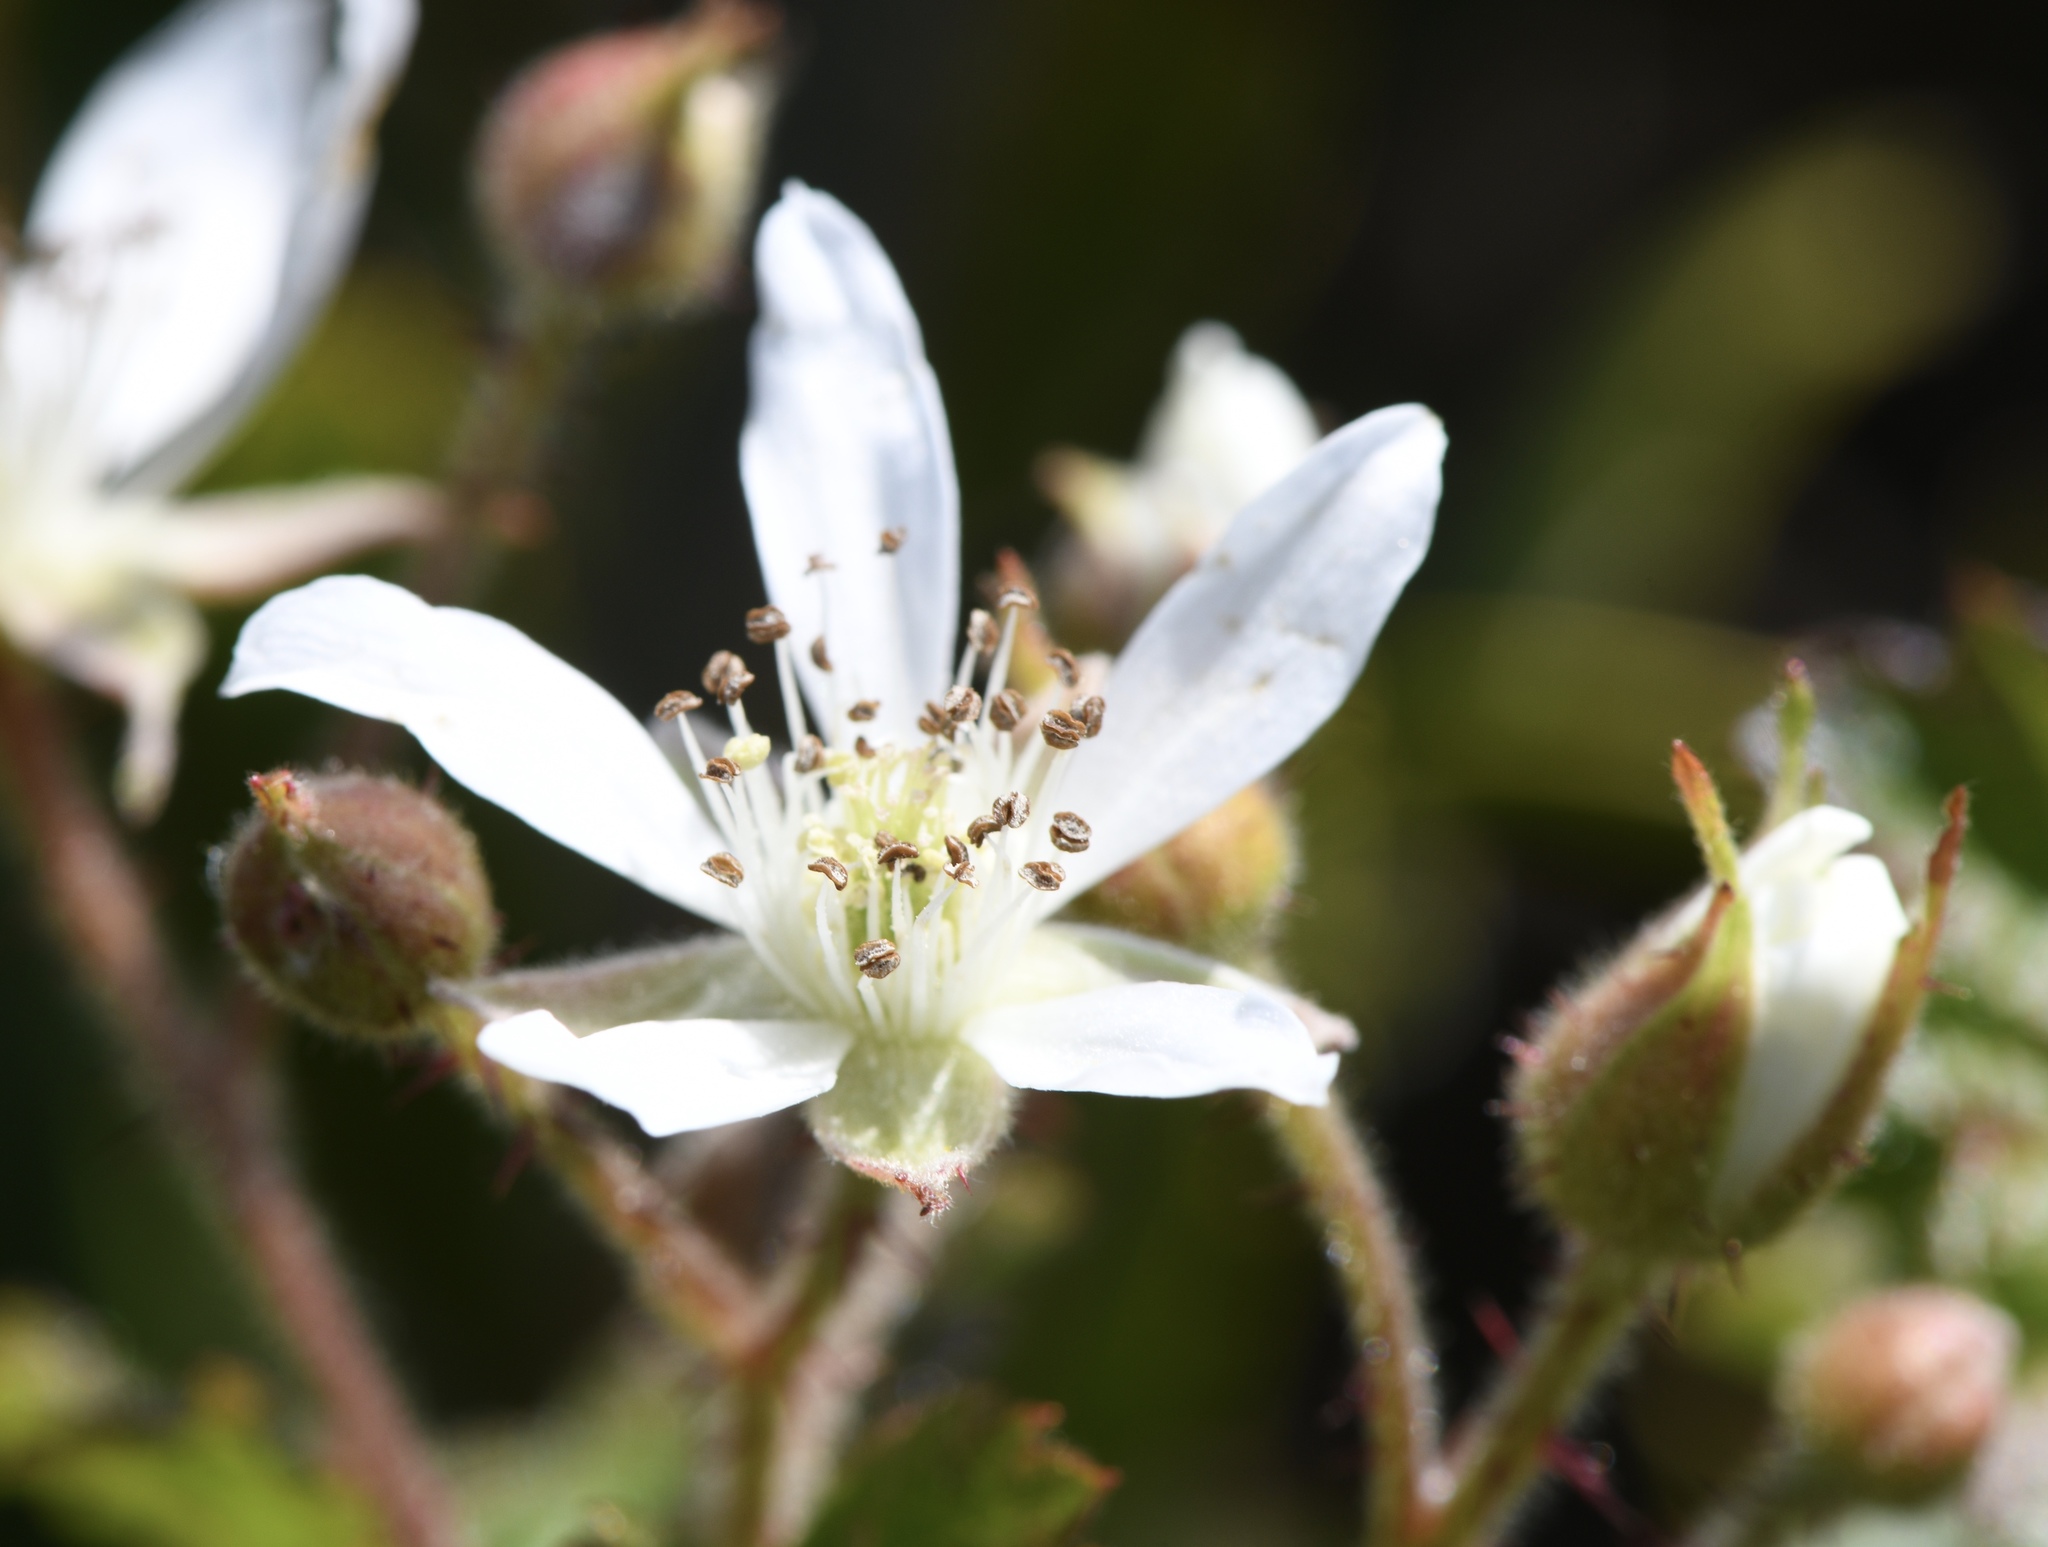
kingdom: Plantae
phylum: Tracheophyta
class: Magnoliopsida
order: Rosales
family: Rosaceae
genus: Rubus
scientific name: Rubus ursinus
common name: Pacific blackberry
